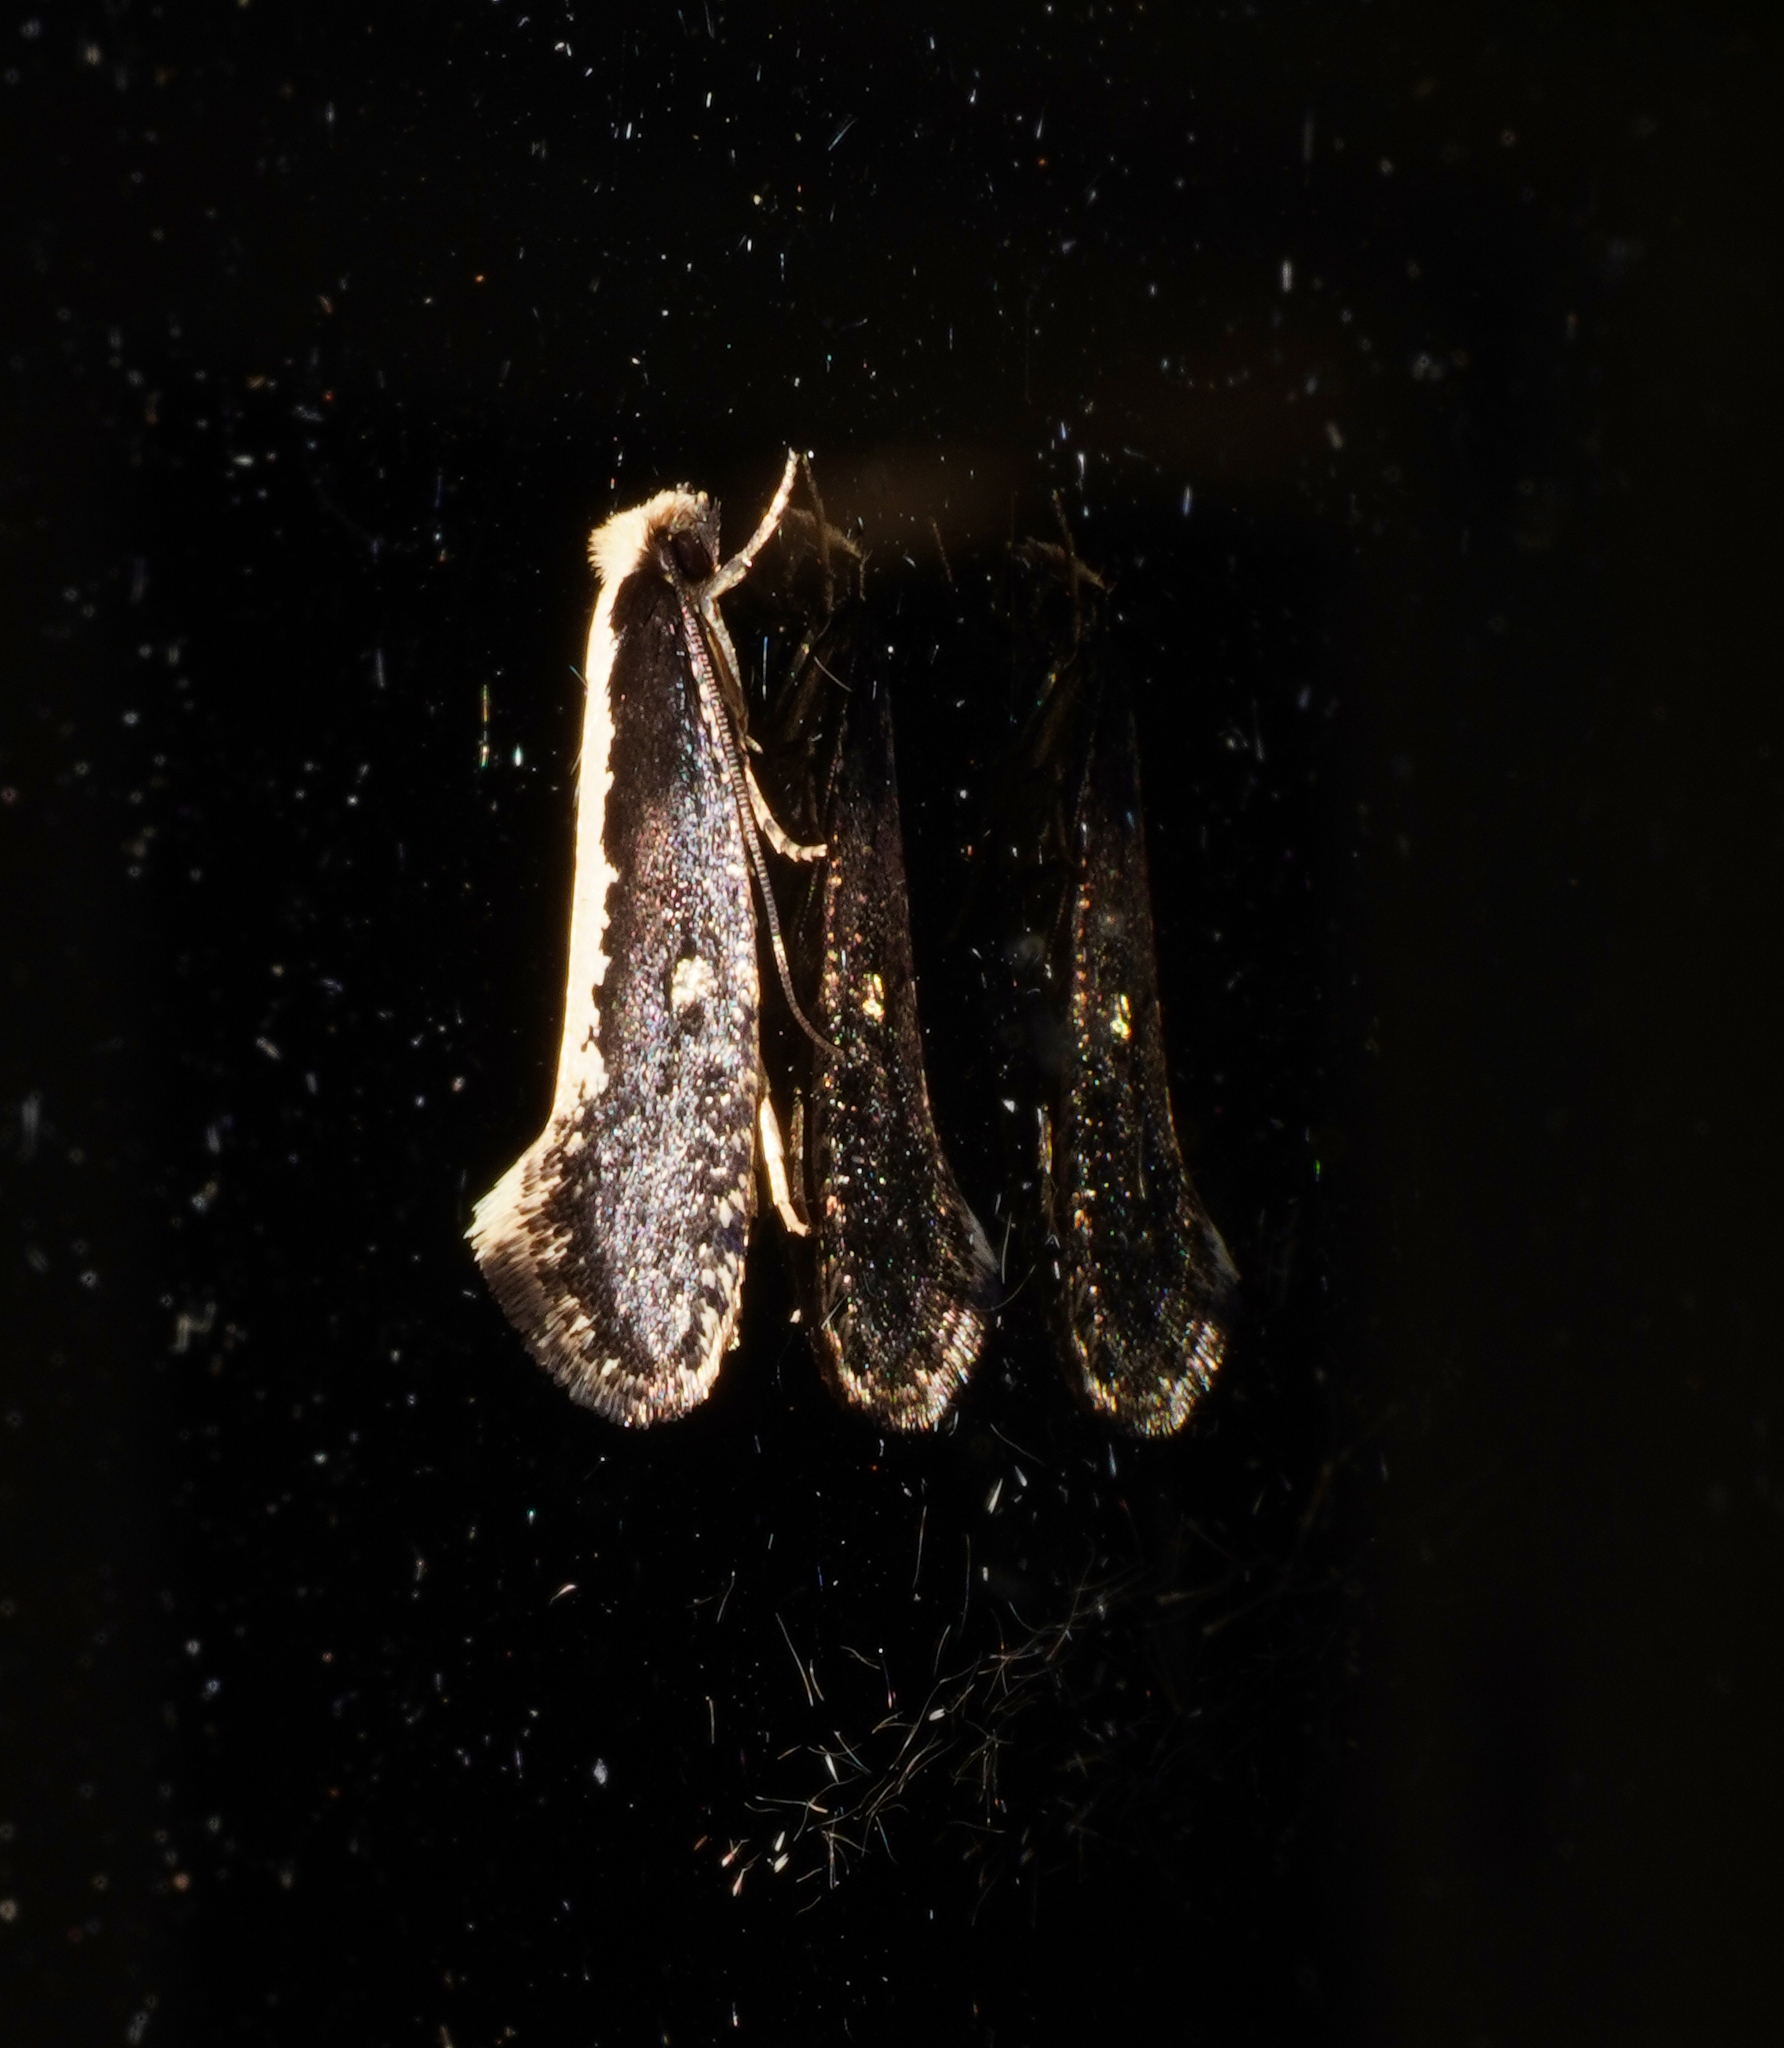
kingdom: Animalia
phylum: Arthropoda
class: Insecta
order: Lepidoptera
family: Tineidae
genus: Monopis
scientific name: Monopis ethelella
